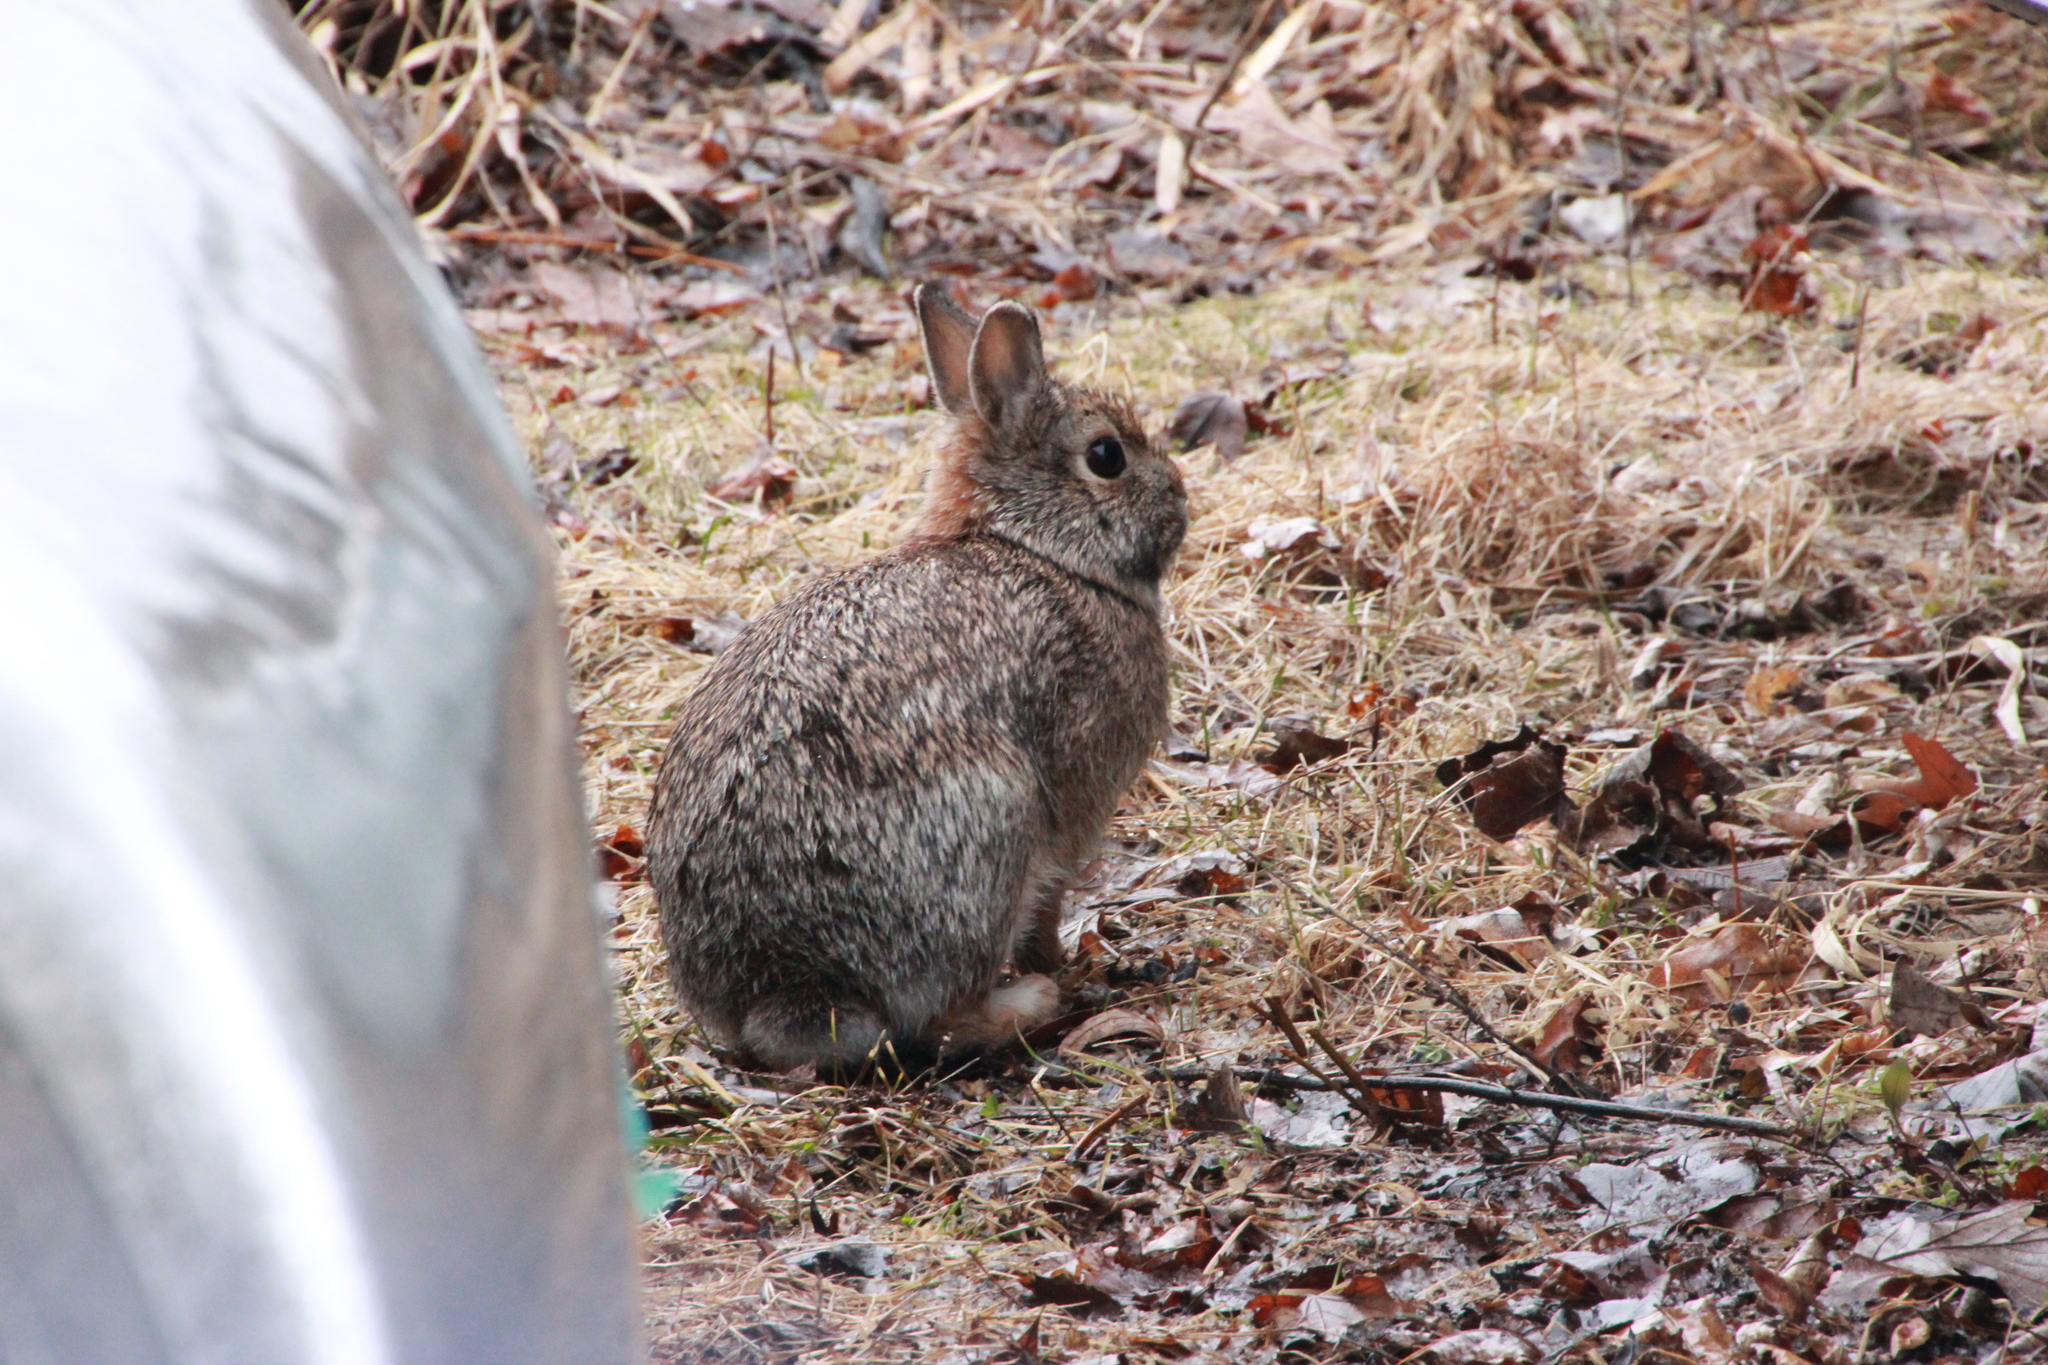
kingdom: Animalia
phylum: Chordata
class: Mammalia
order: Lagomorpha
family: Leporidae
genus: Sylvilagus
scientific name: Sylvilagus floridanus
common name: Eastern cottontail
